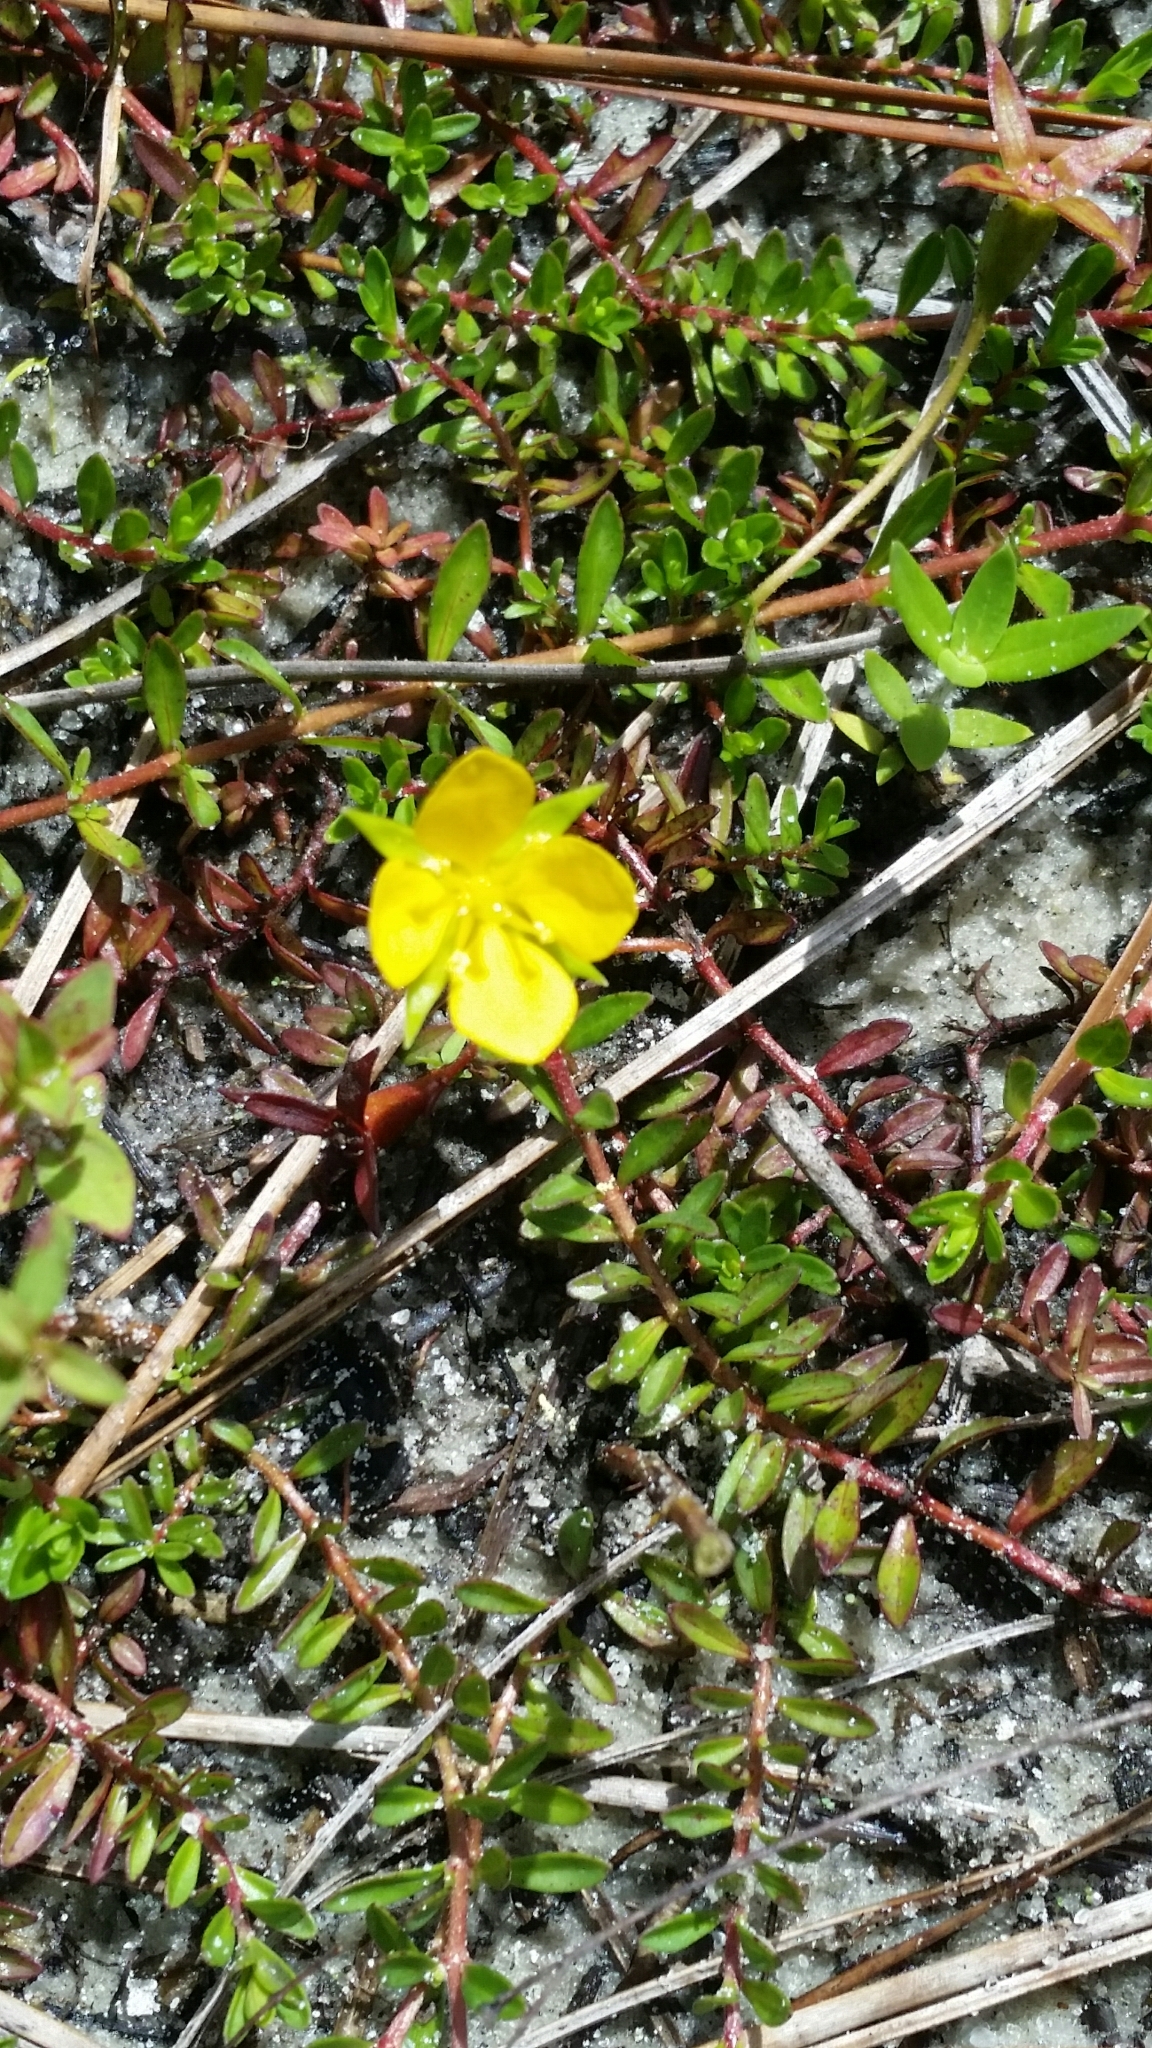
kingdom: Plantae
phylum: Tracheophyta
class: Magnoliopsida
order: Myrtales
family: Onagraceae
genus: Ludwigia
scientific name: Ludwigia arcuata
